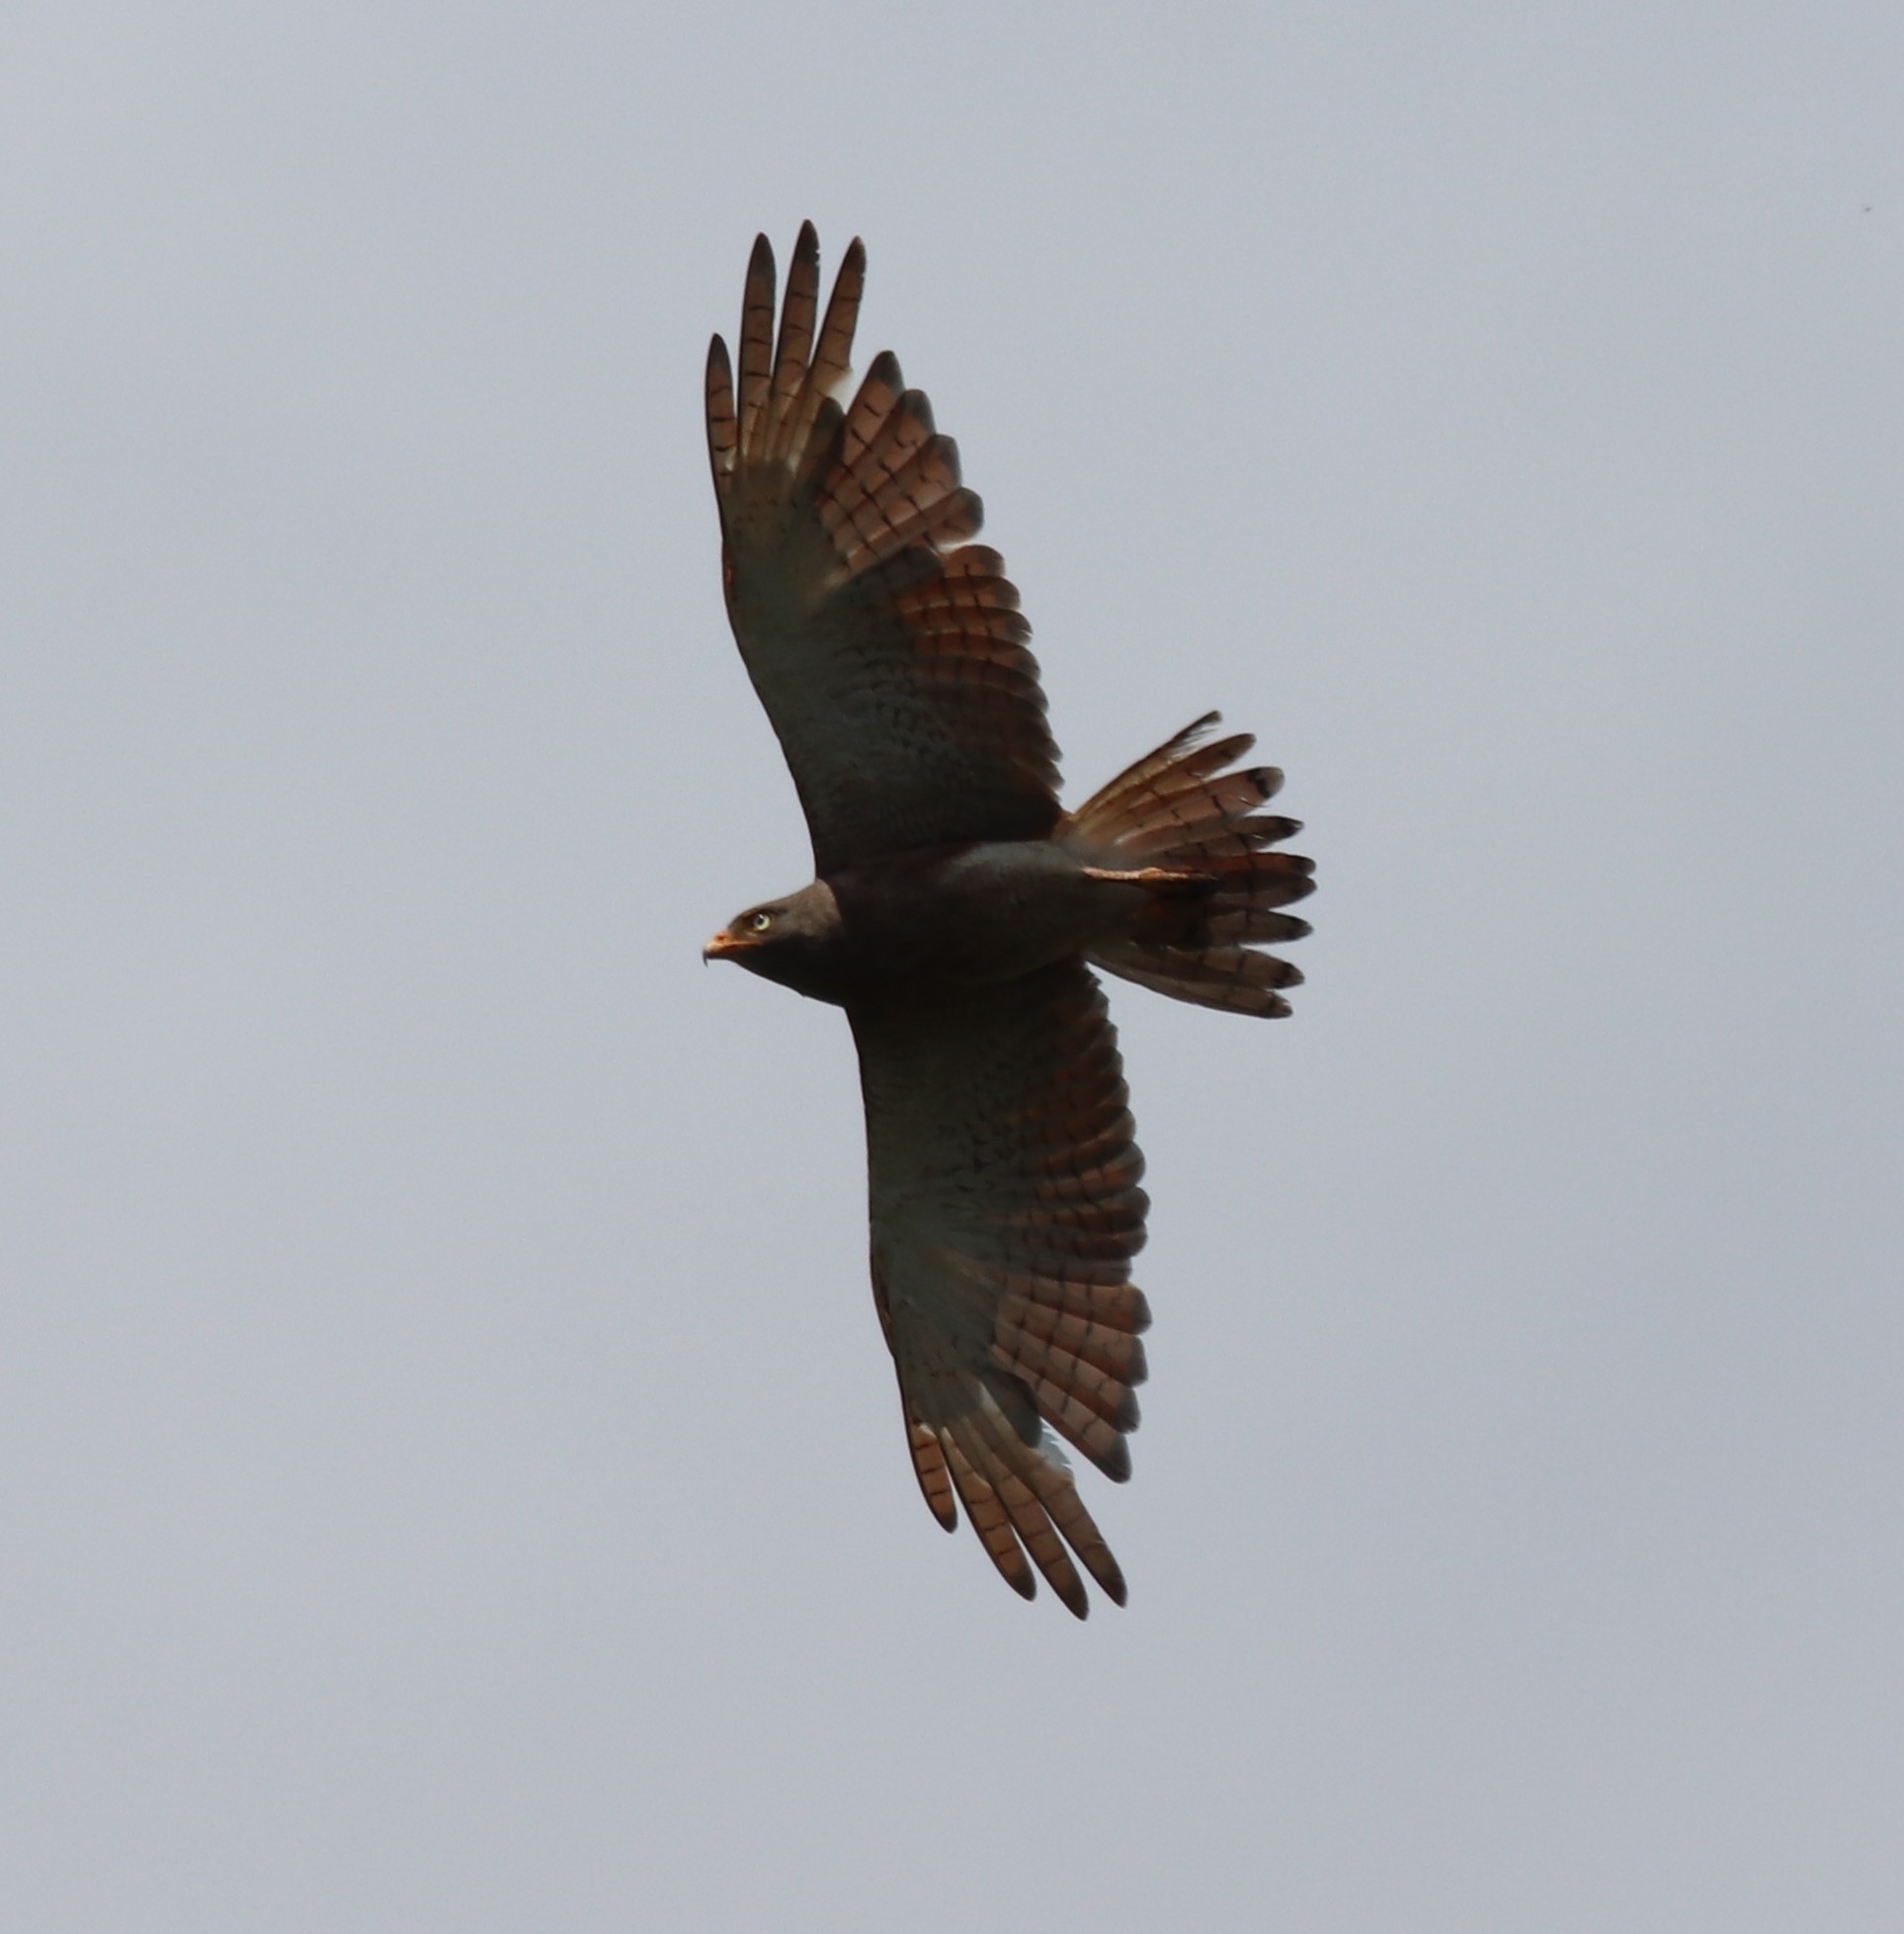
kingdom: Animalia
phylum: Chordata
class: Aves
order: Accipitriformes
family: Accipitridae
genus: Butastur
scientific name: Butastur liventer
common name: Rufous-winged buzzard
